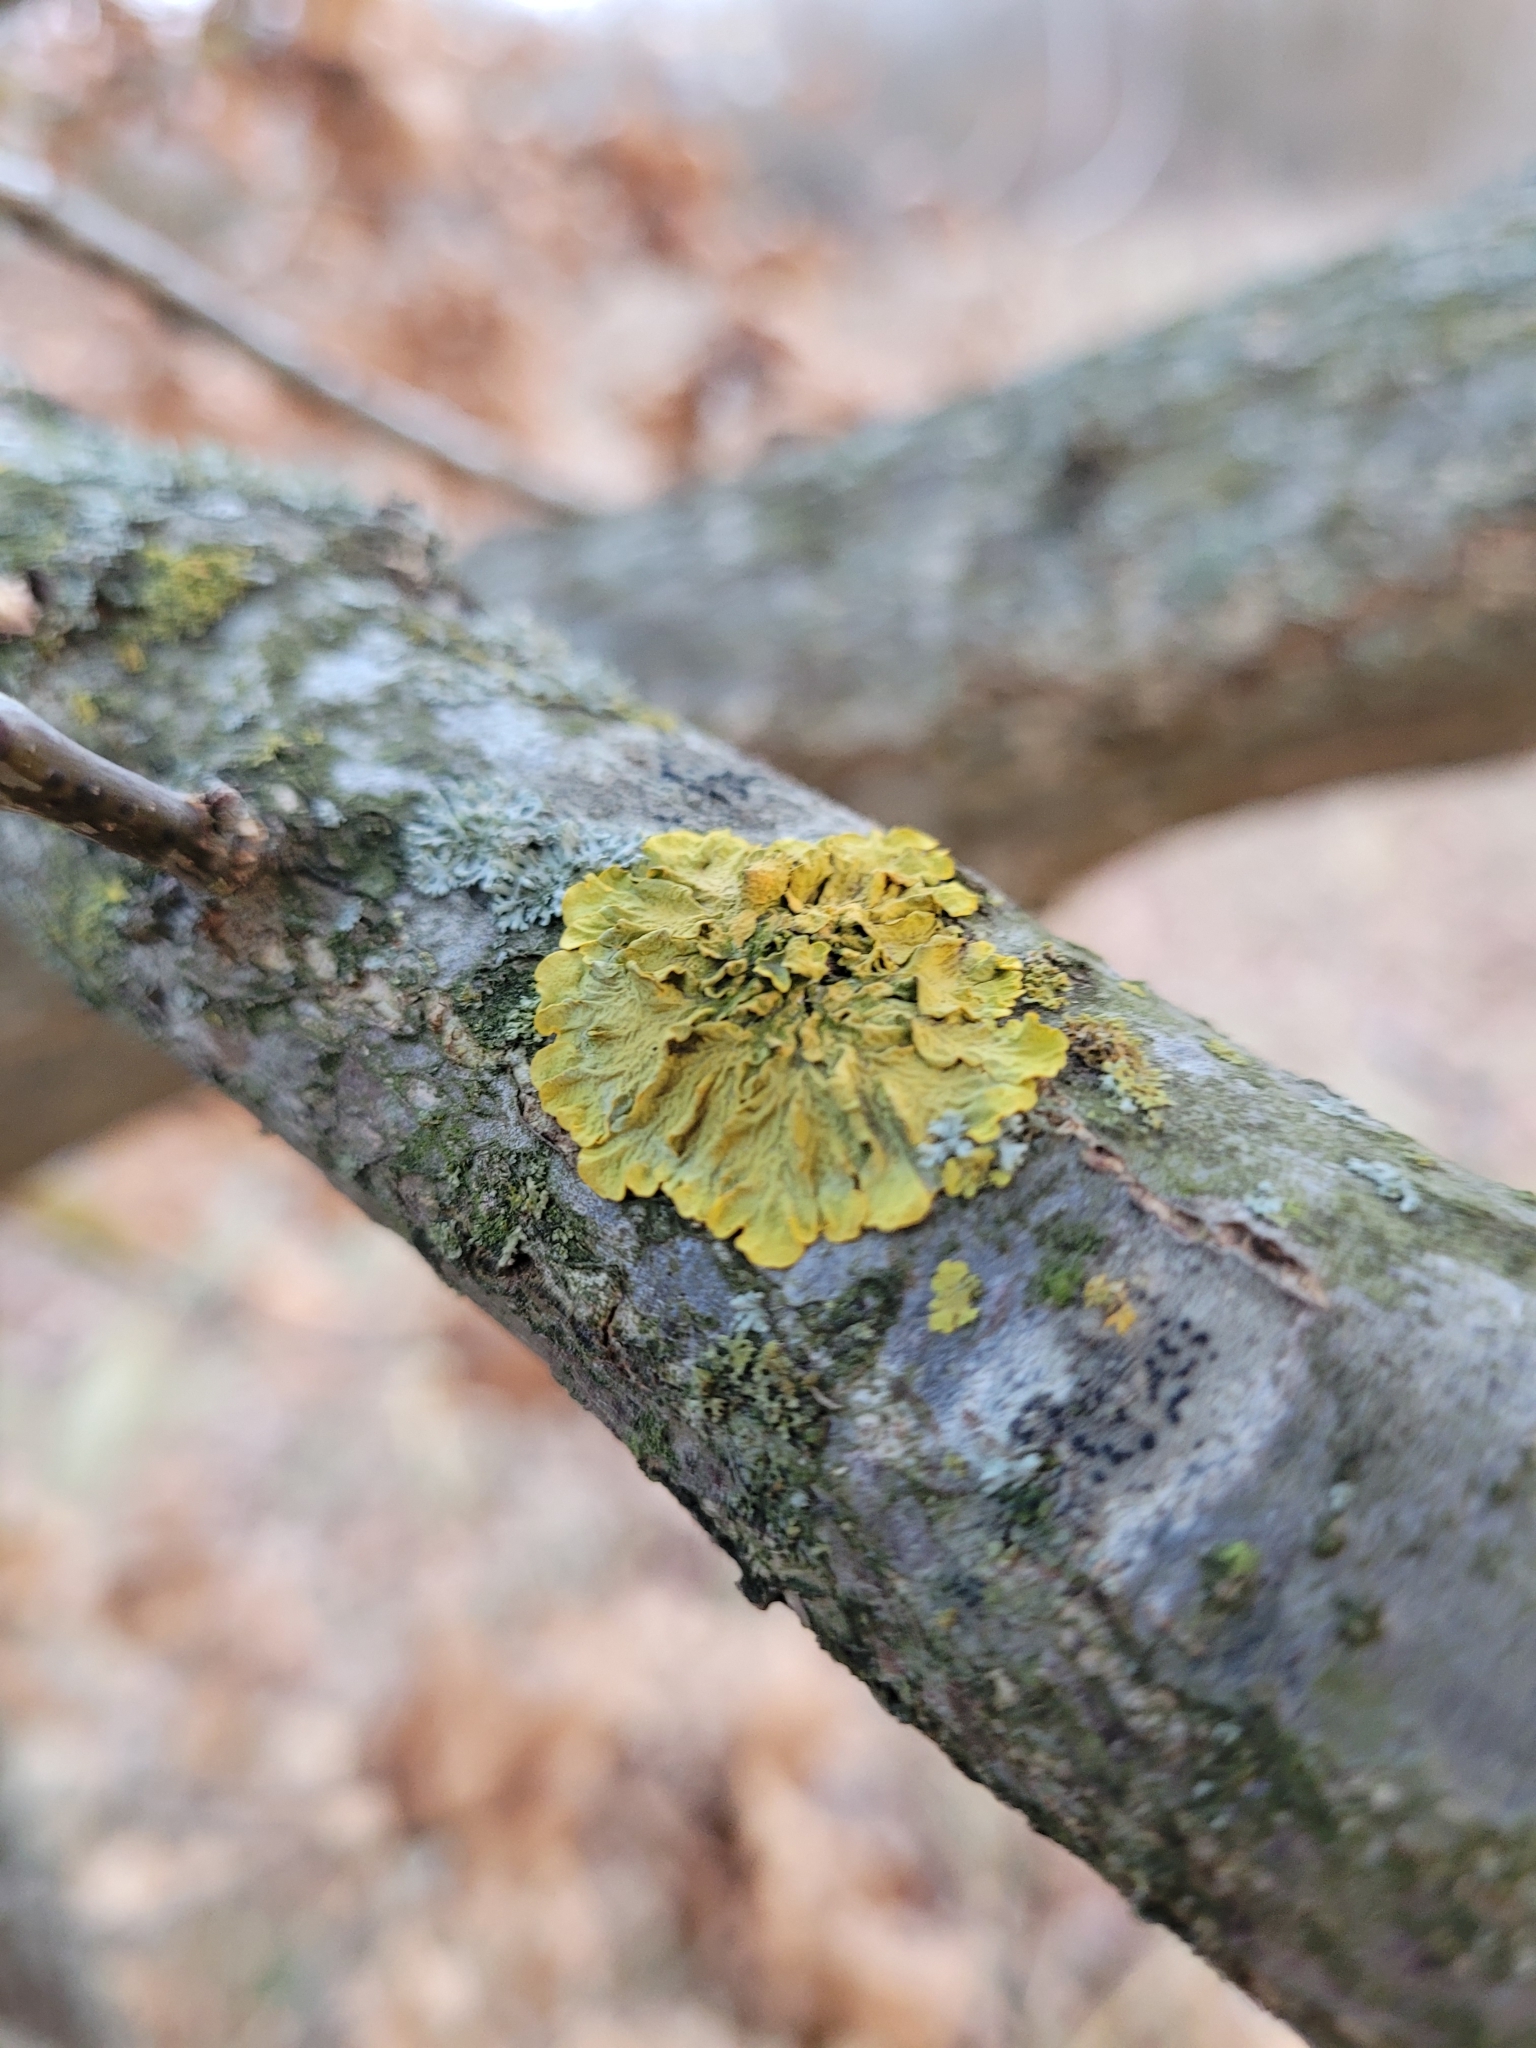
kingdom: Fungi
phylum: Ascomycota
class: Lecanoromycetes
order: Teloschistales
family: Teloschistaceae
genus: Xanthoria
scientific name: Xanthoria parietina
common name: Common orange lichen
